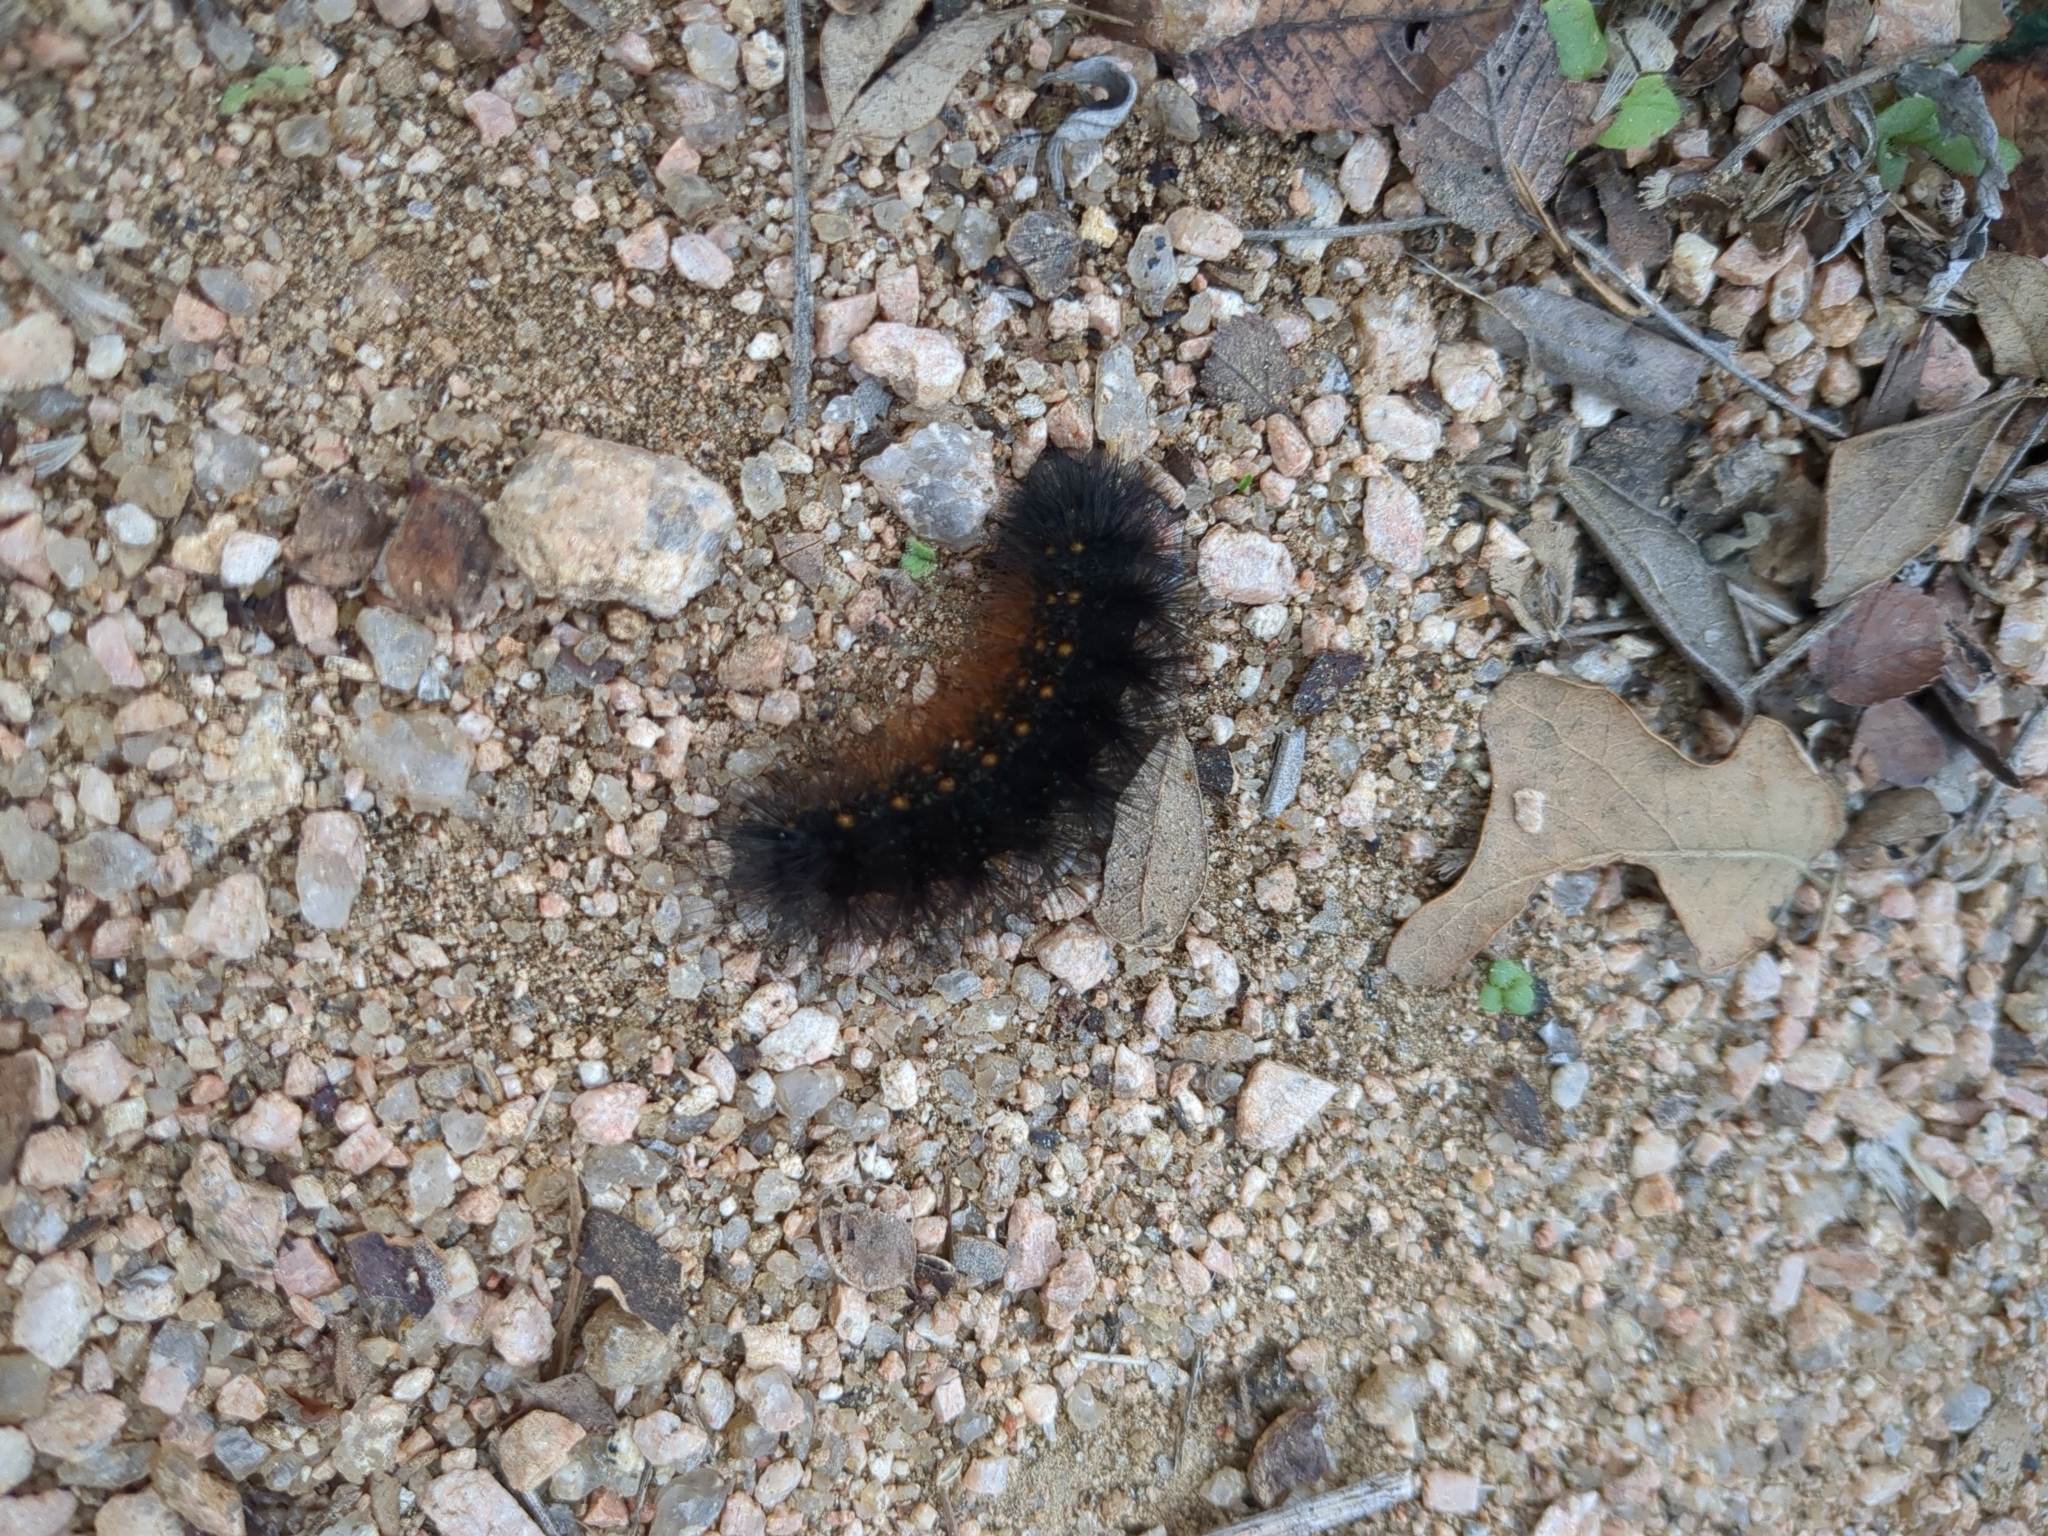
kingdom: Animalia
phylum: Arthropoda
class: Insecta
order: Lepidoptera
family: Erebidae
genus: Estigmene
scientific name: Estigmene acrea
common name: Salt marsh moth
